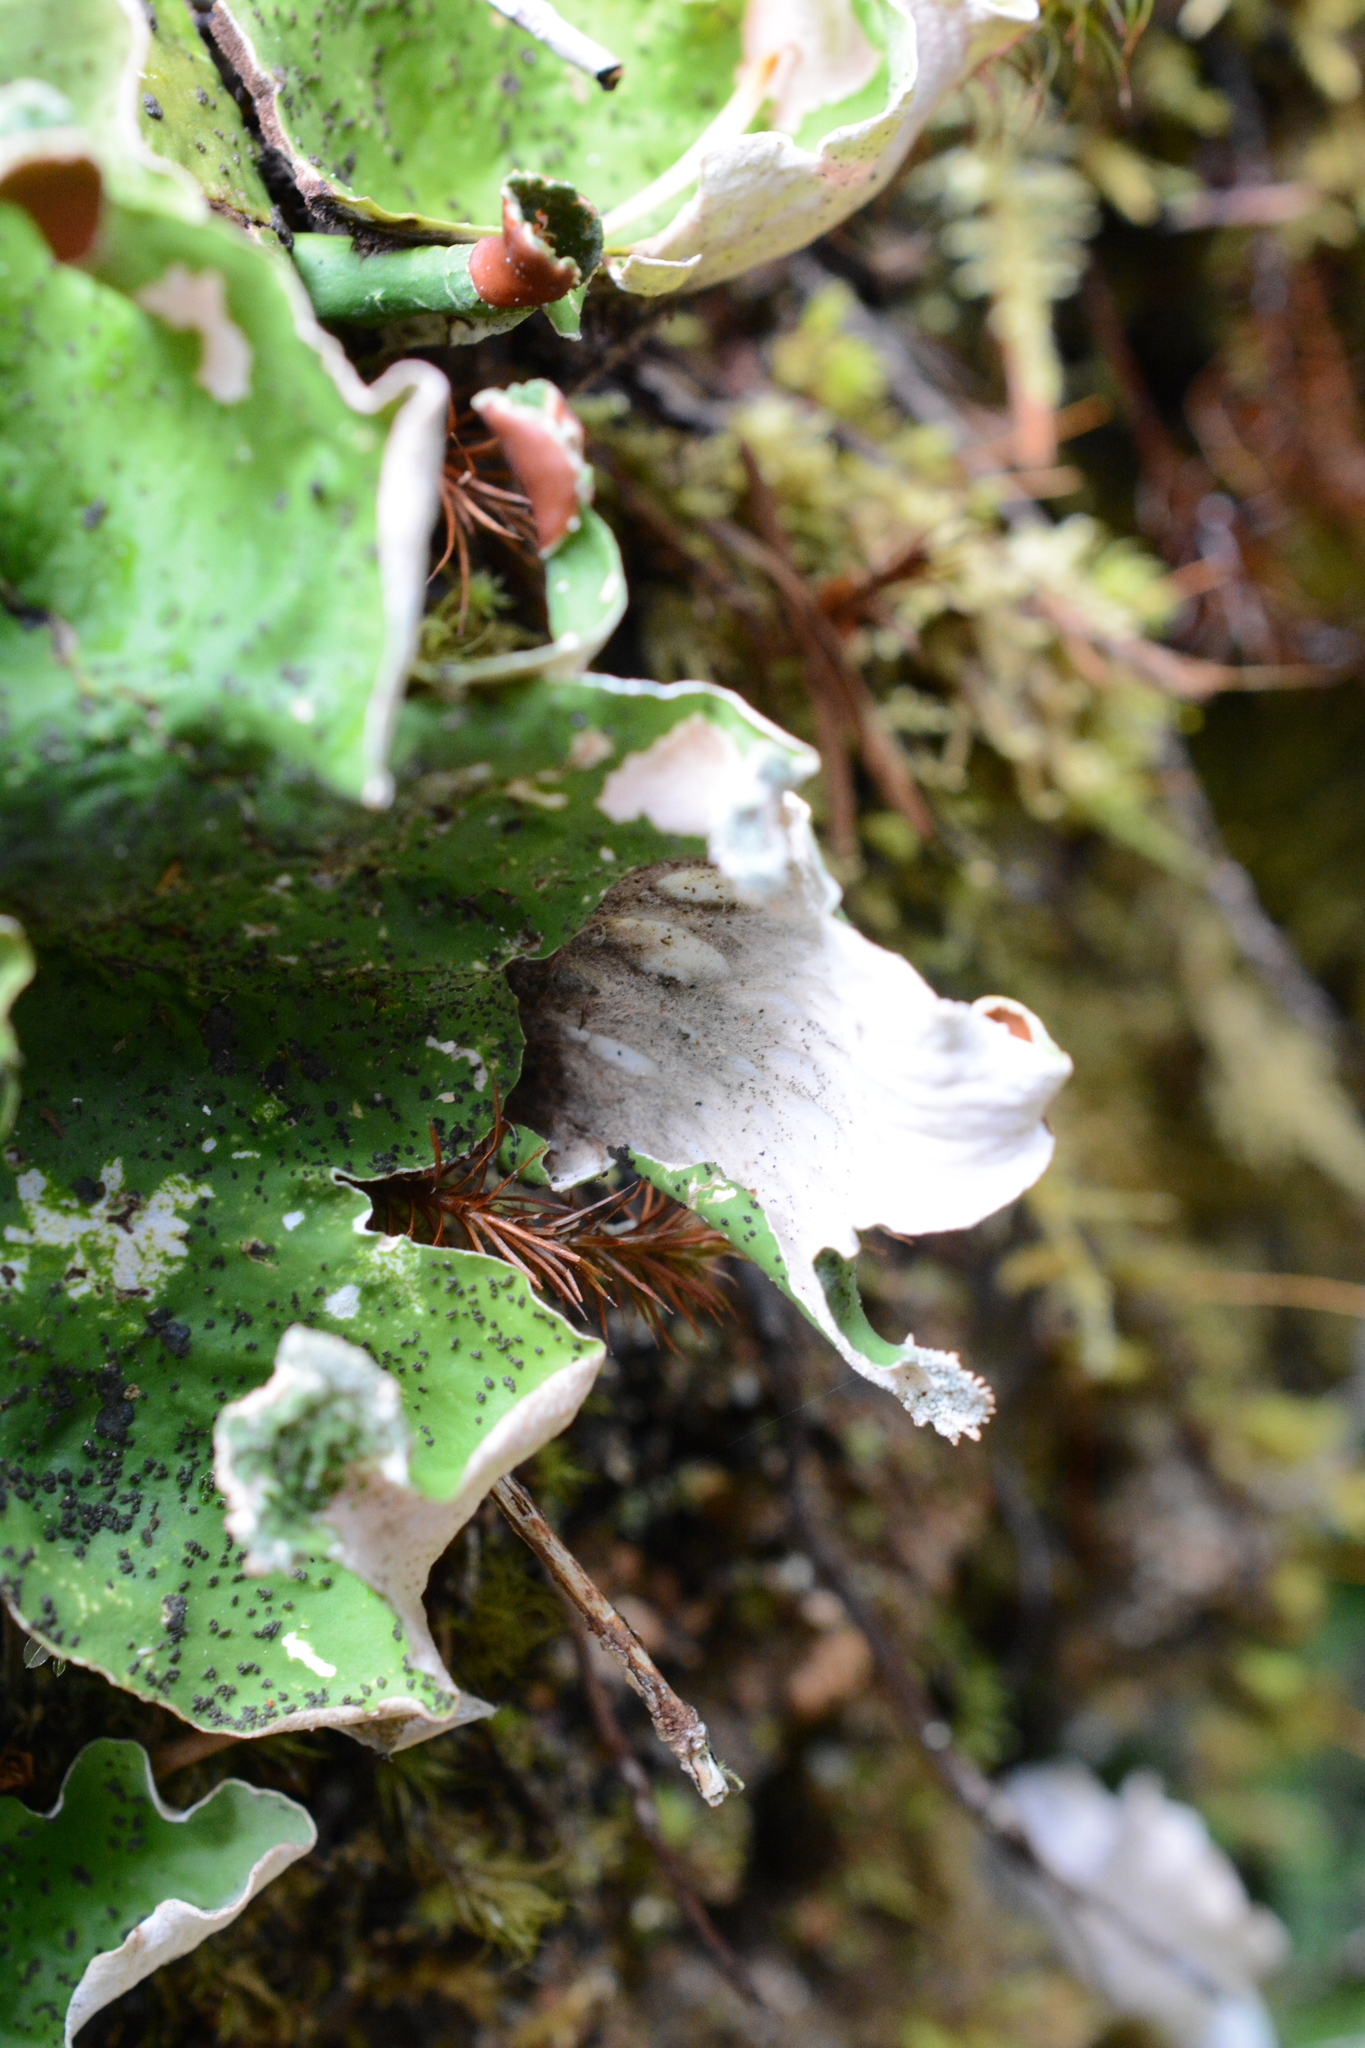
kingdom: Fungi
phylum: Ascomycota
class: Lecanoromycetes
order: Peltigerales
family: Peltigeraceae
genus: Peltigera
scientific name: Peltigera leucophlebia
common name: Ruffled freckle pelt lichen
